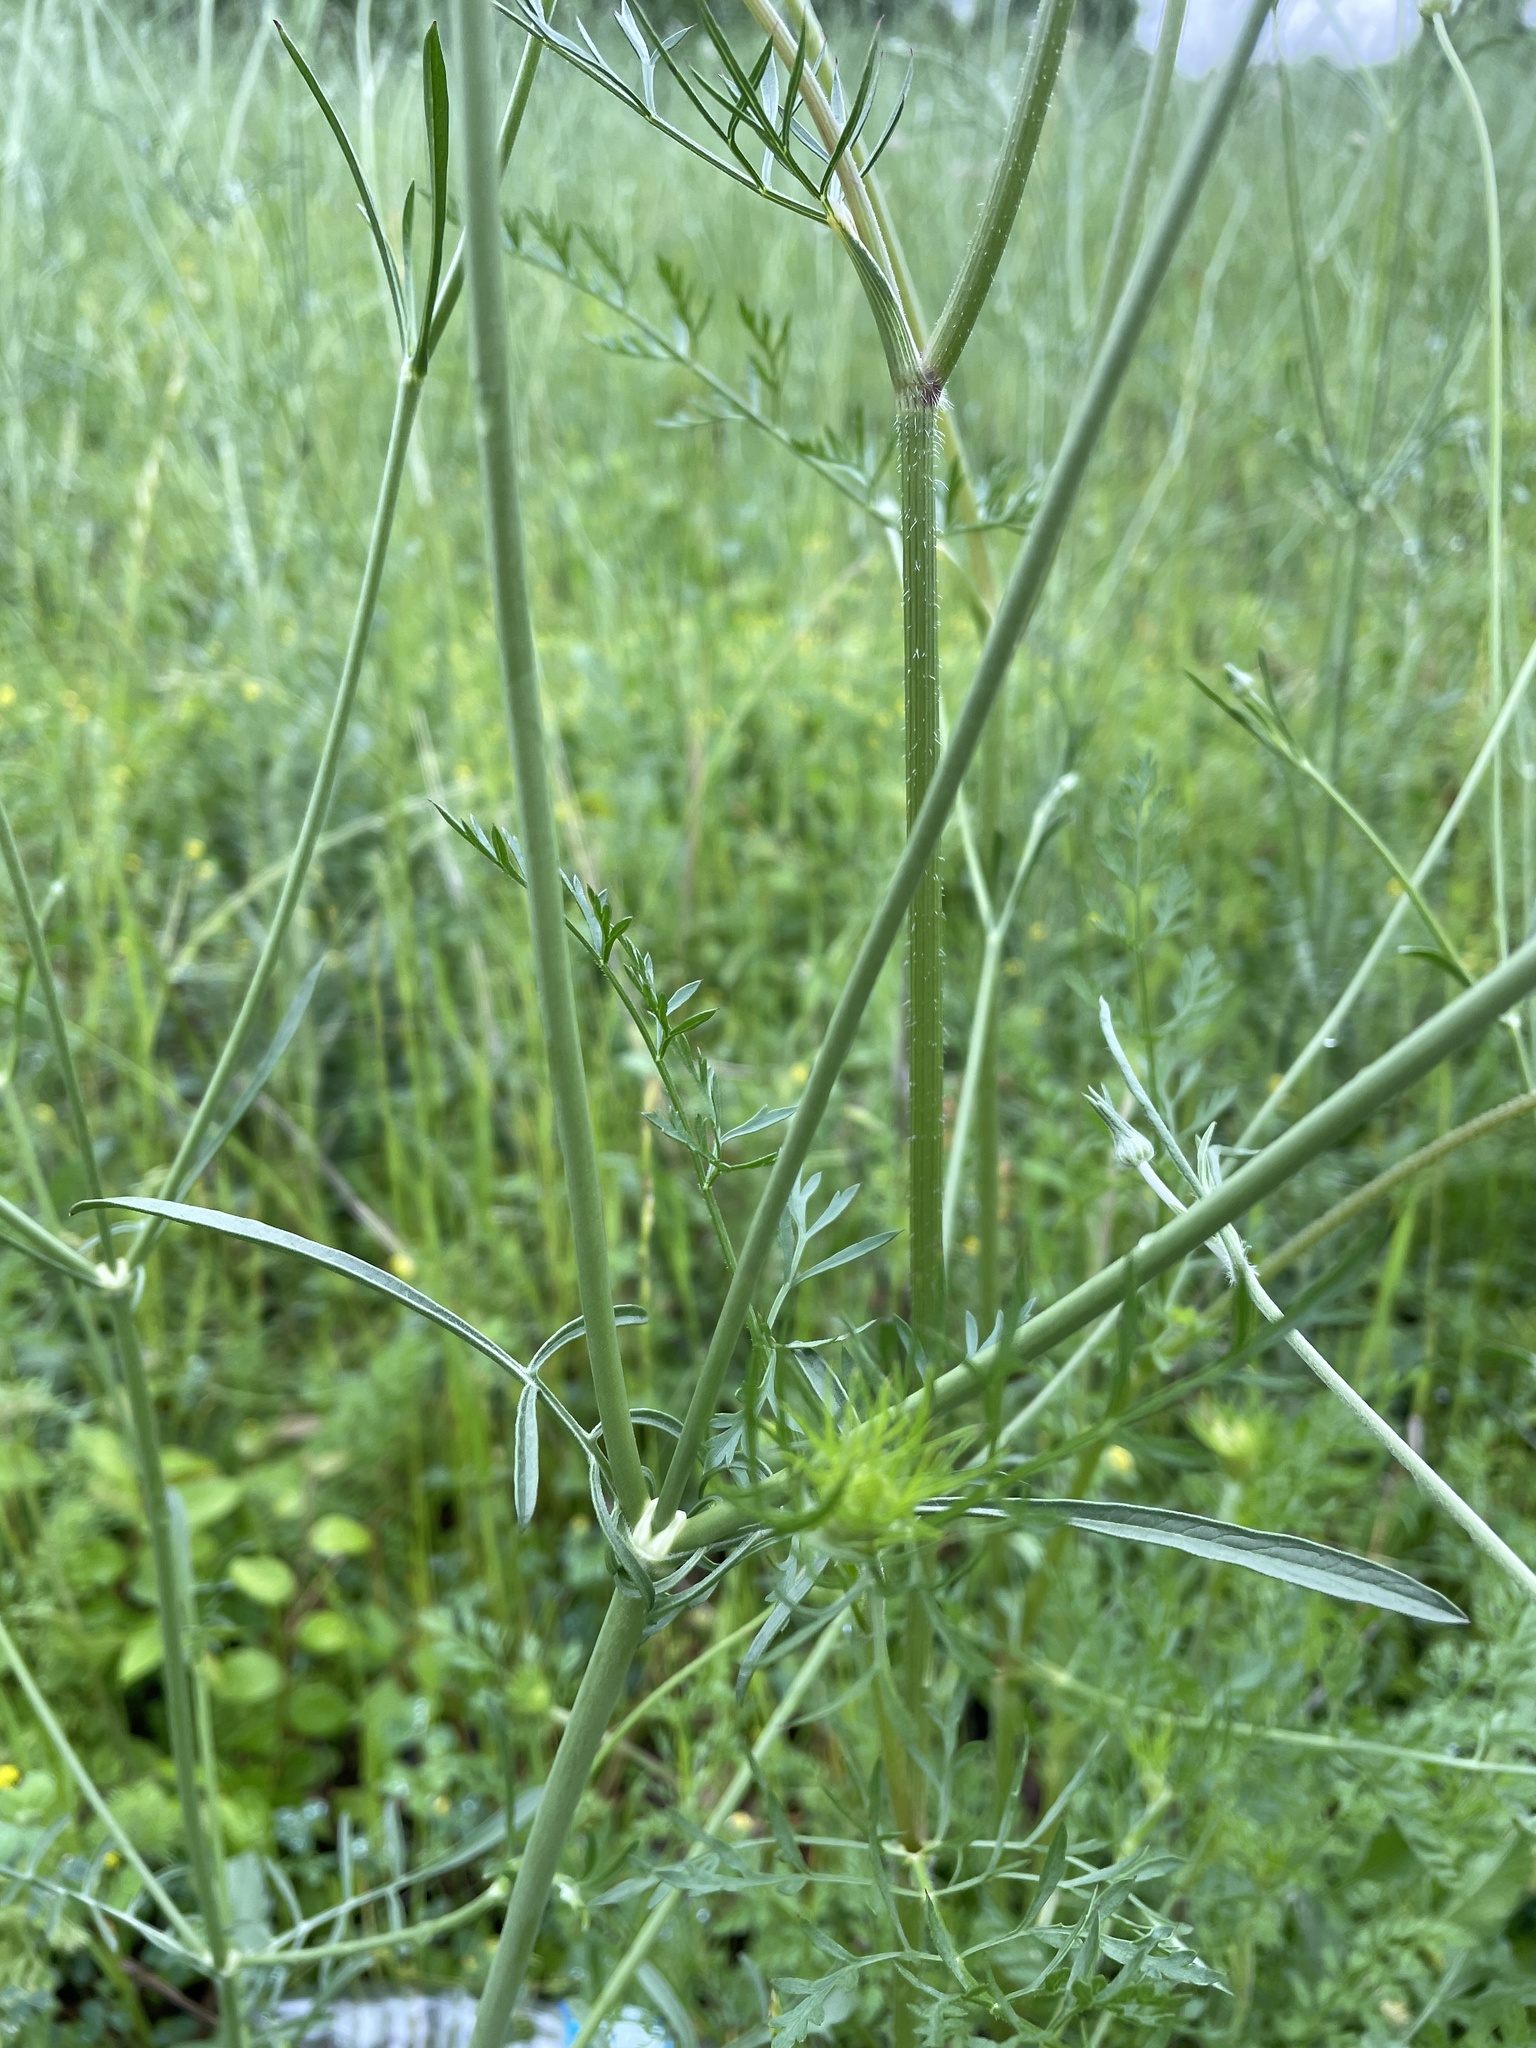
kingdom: Plantae
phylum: Tracheophyta
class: Magnoliopsida
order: Dipsacales
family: Caprifoliaceae
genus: Sixalix
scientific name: Sixalix atropurpurea
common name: Sweet scabious
